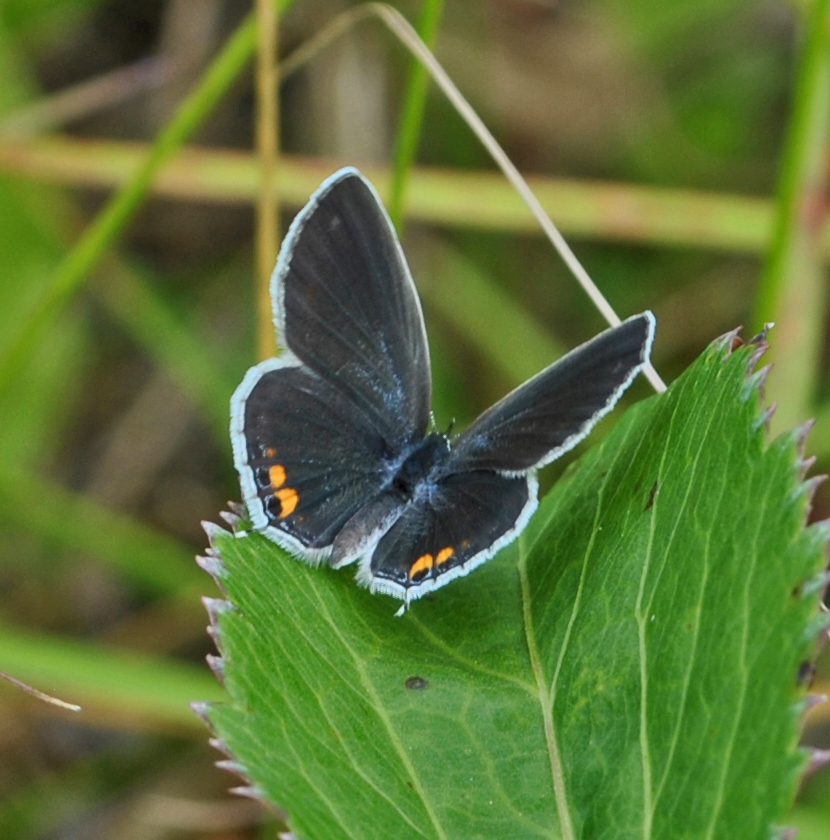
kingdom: Animalia
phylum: Arthropoda
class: Insecta
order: Lepidoptera
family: Lycaenidae
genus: Elkalyce
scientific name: Elkalyce comyntas
